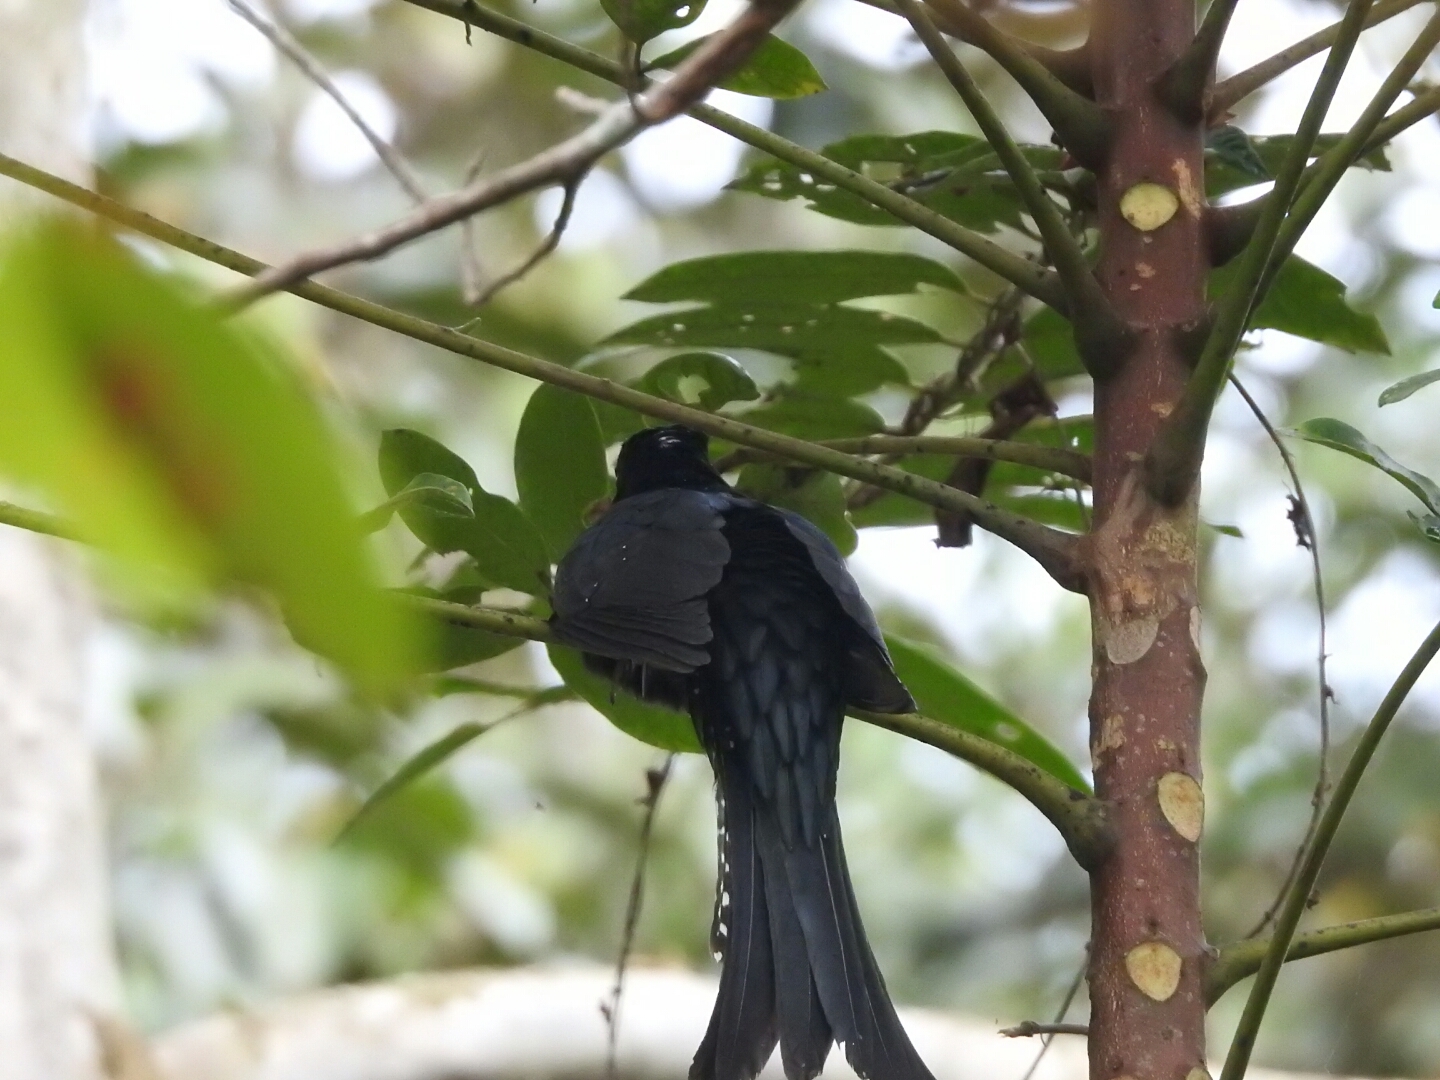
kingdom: Animalia
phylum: Chordata
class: Aves
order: Cuculiformes
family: Cuculidae
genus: Surniculus
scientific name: Surniculus lugubris
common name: Square-tailed drongo-cuckoo
